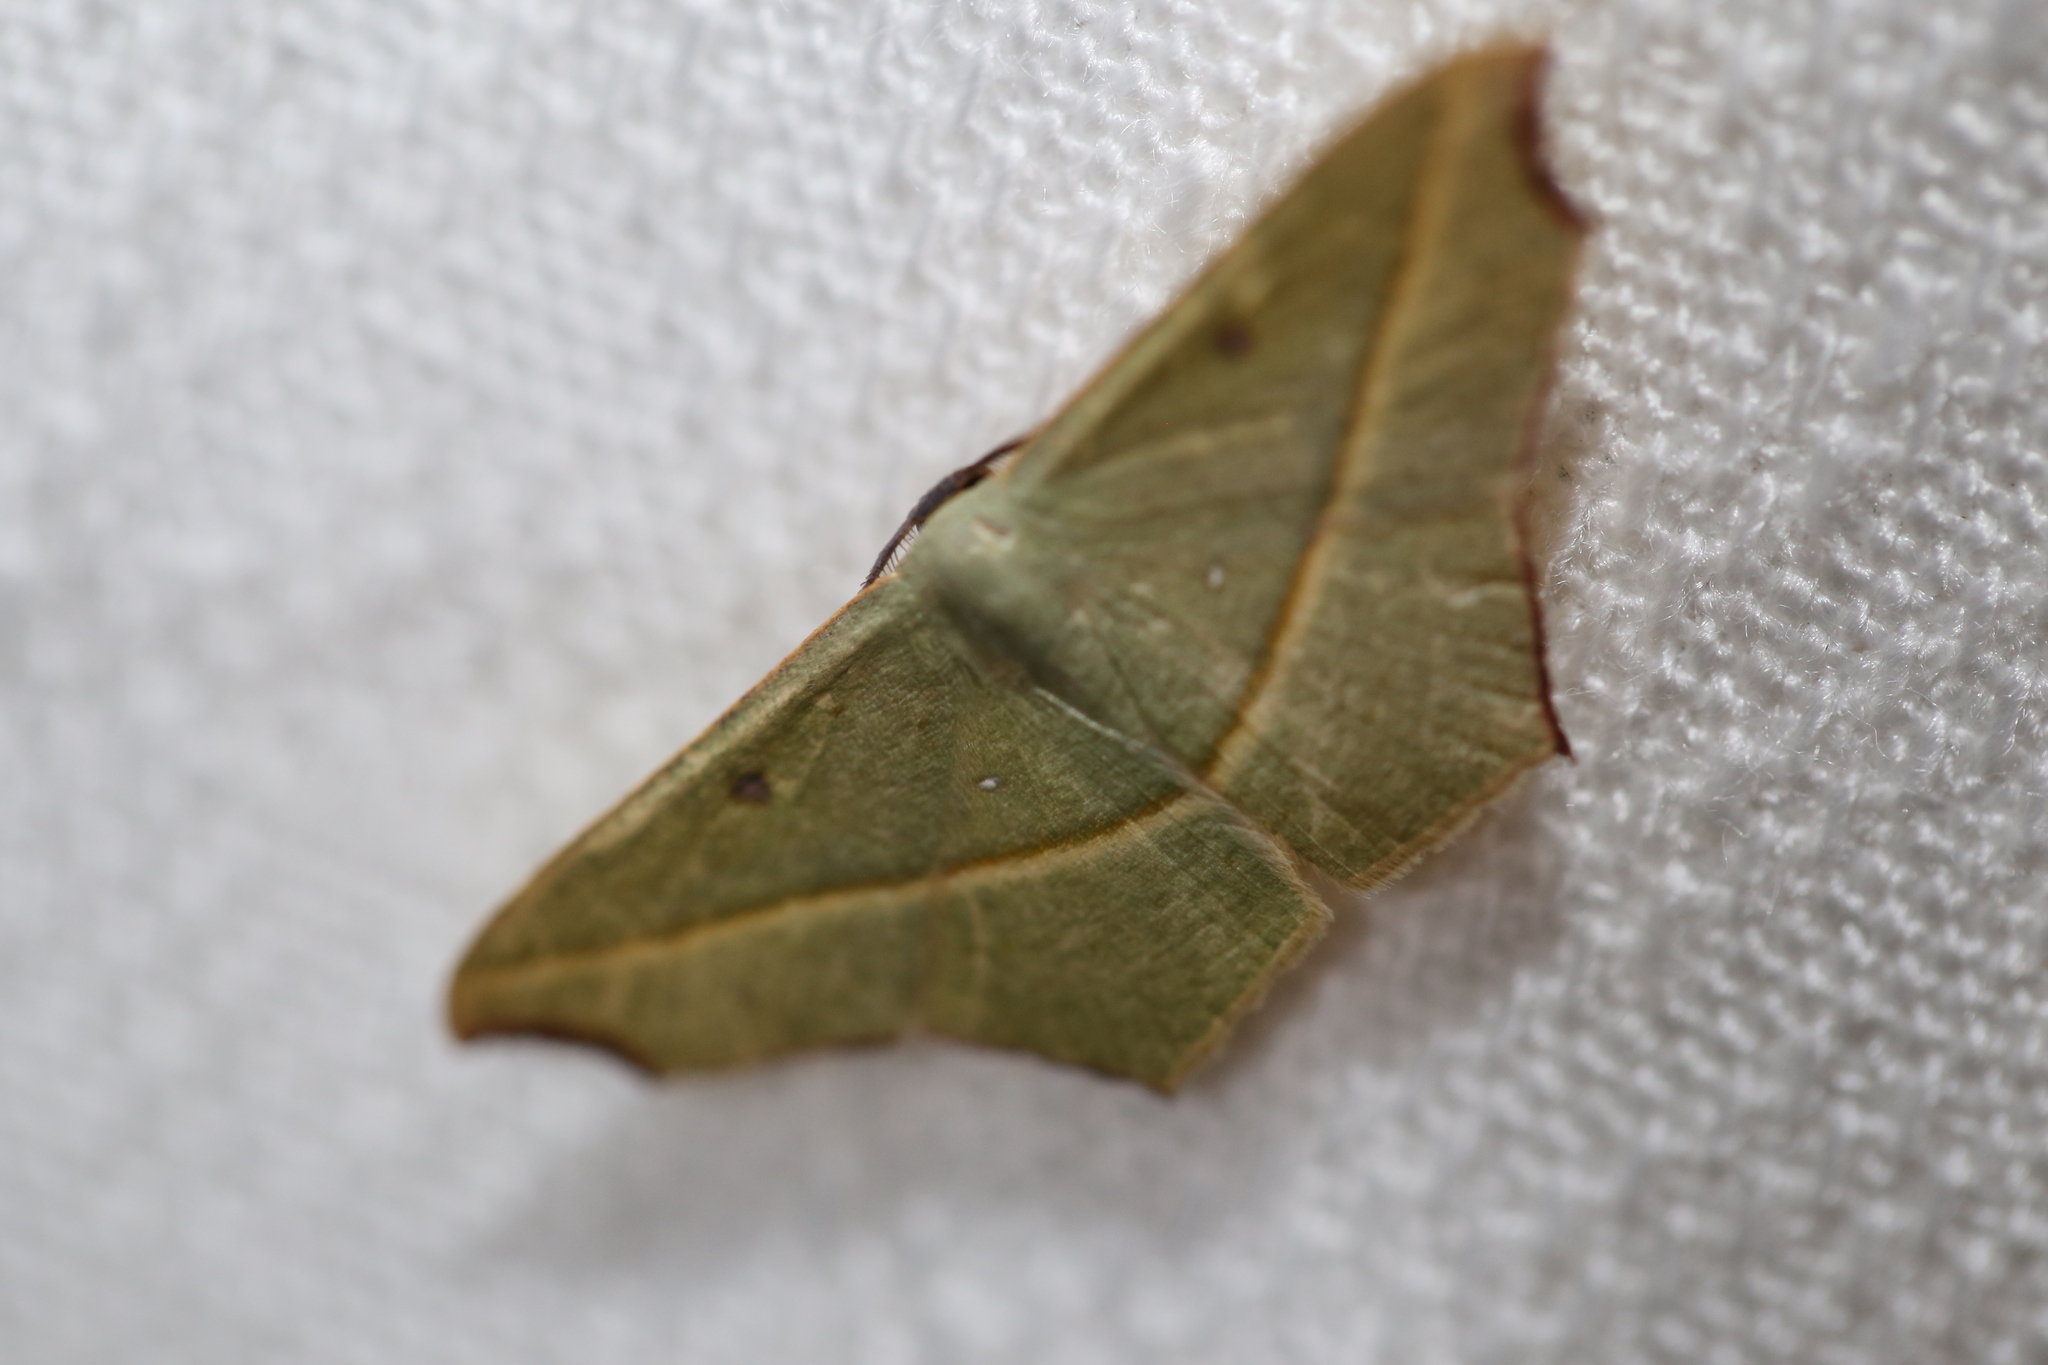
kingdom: Animalia
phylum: Arthropoda
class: Insecta
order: Lepidoptera
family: Geometridae
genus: Traminda
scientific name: Traminda aventiaria
